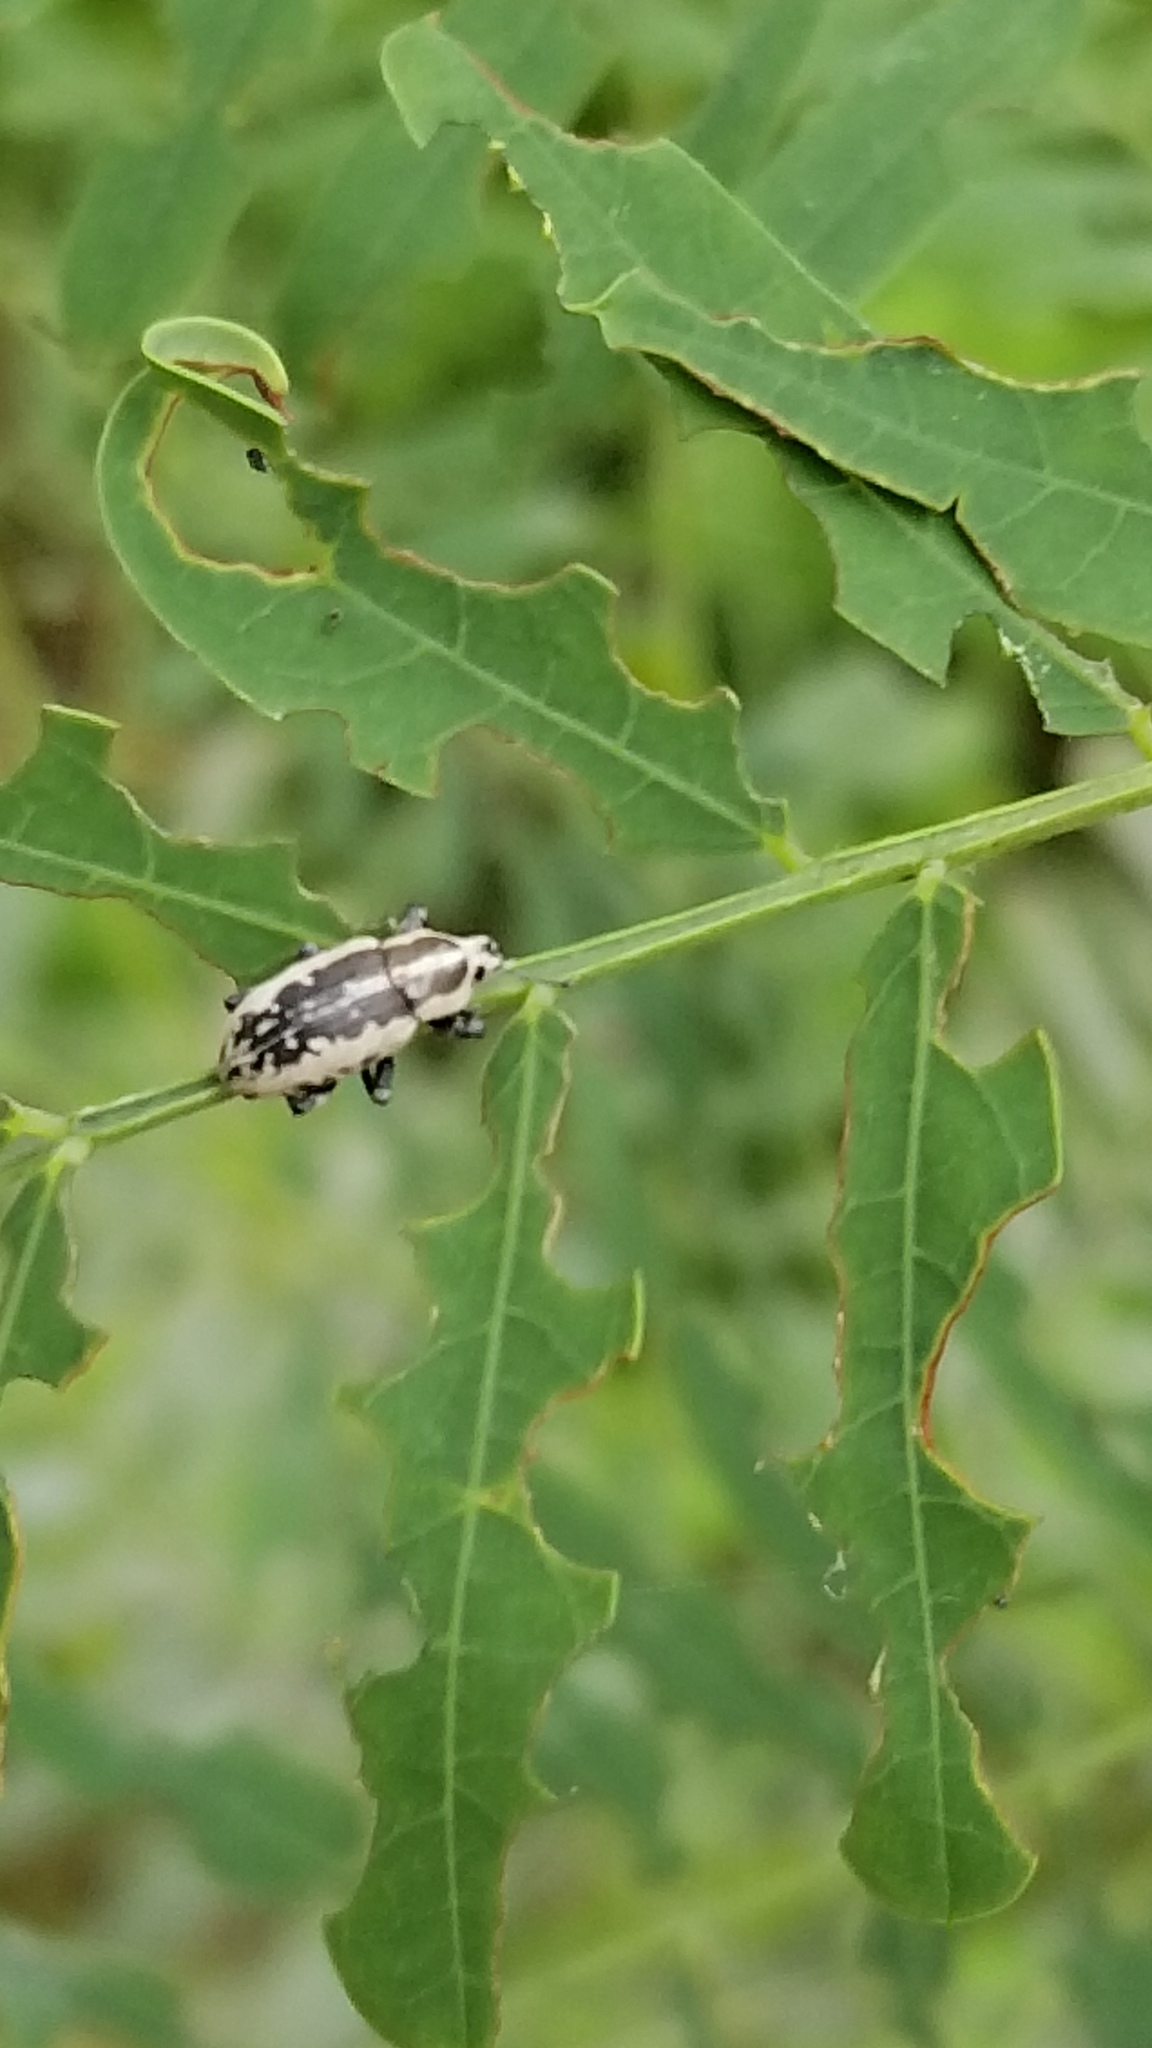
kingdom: Animalia
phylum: Arthropoda
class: Insecta
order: Coleoptera
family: Curculionidae
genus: Eudiagogus
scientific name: Eudiagogus rosenschoeldi
